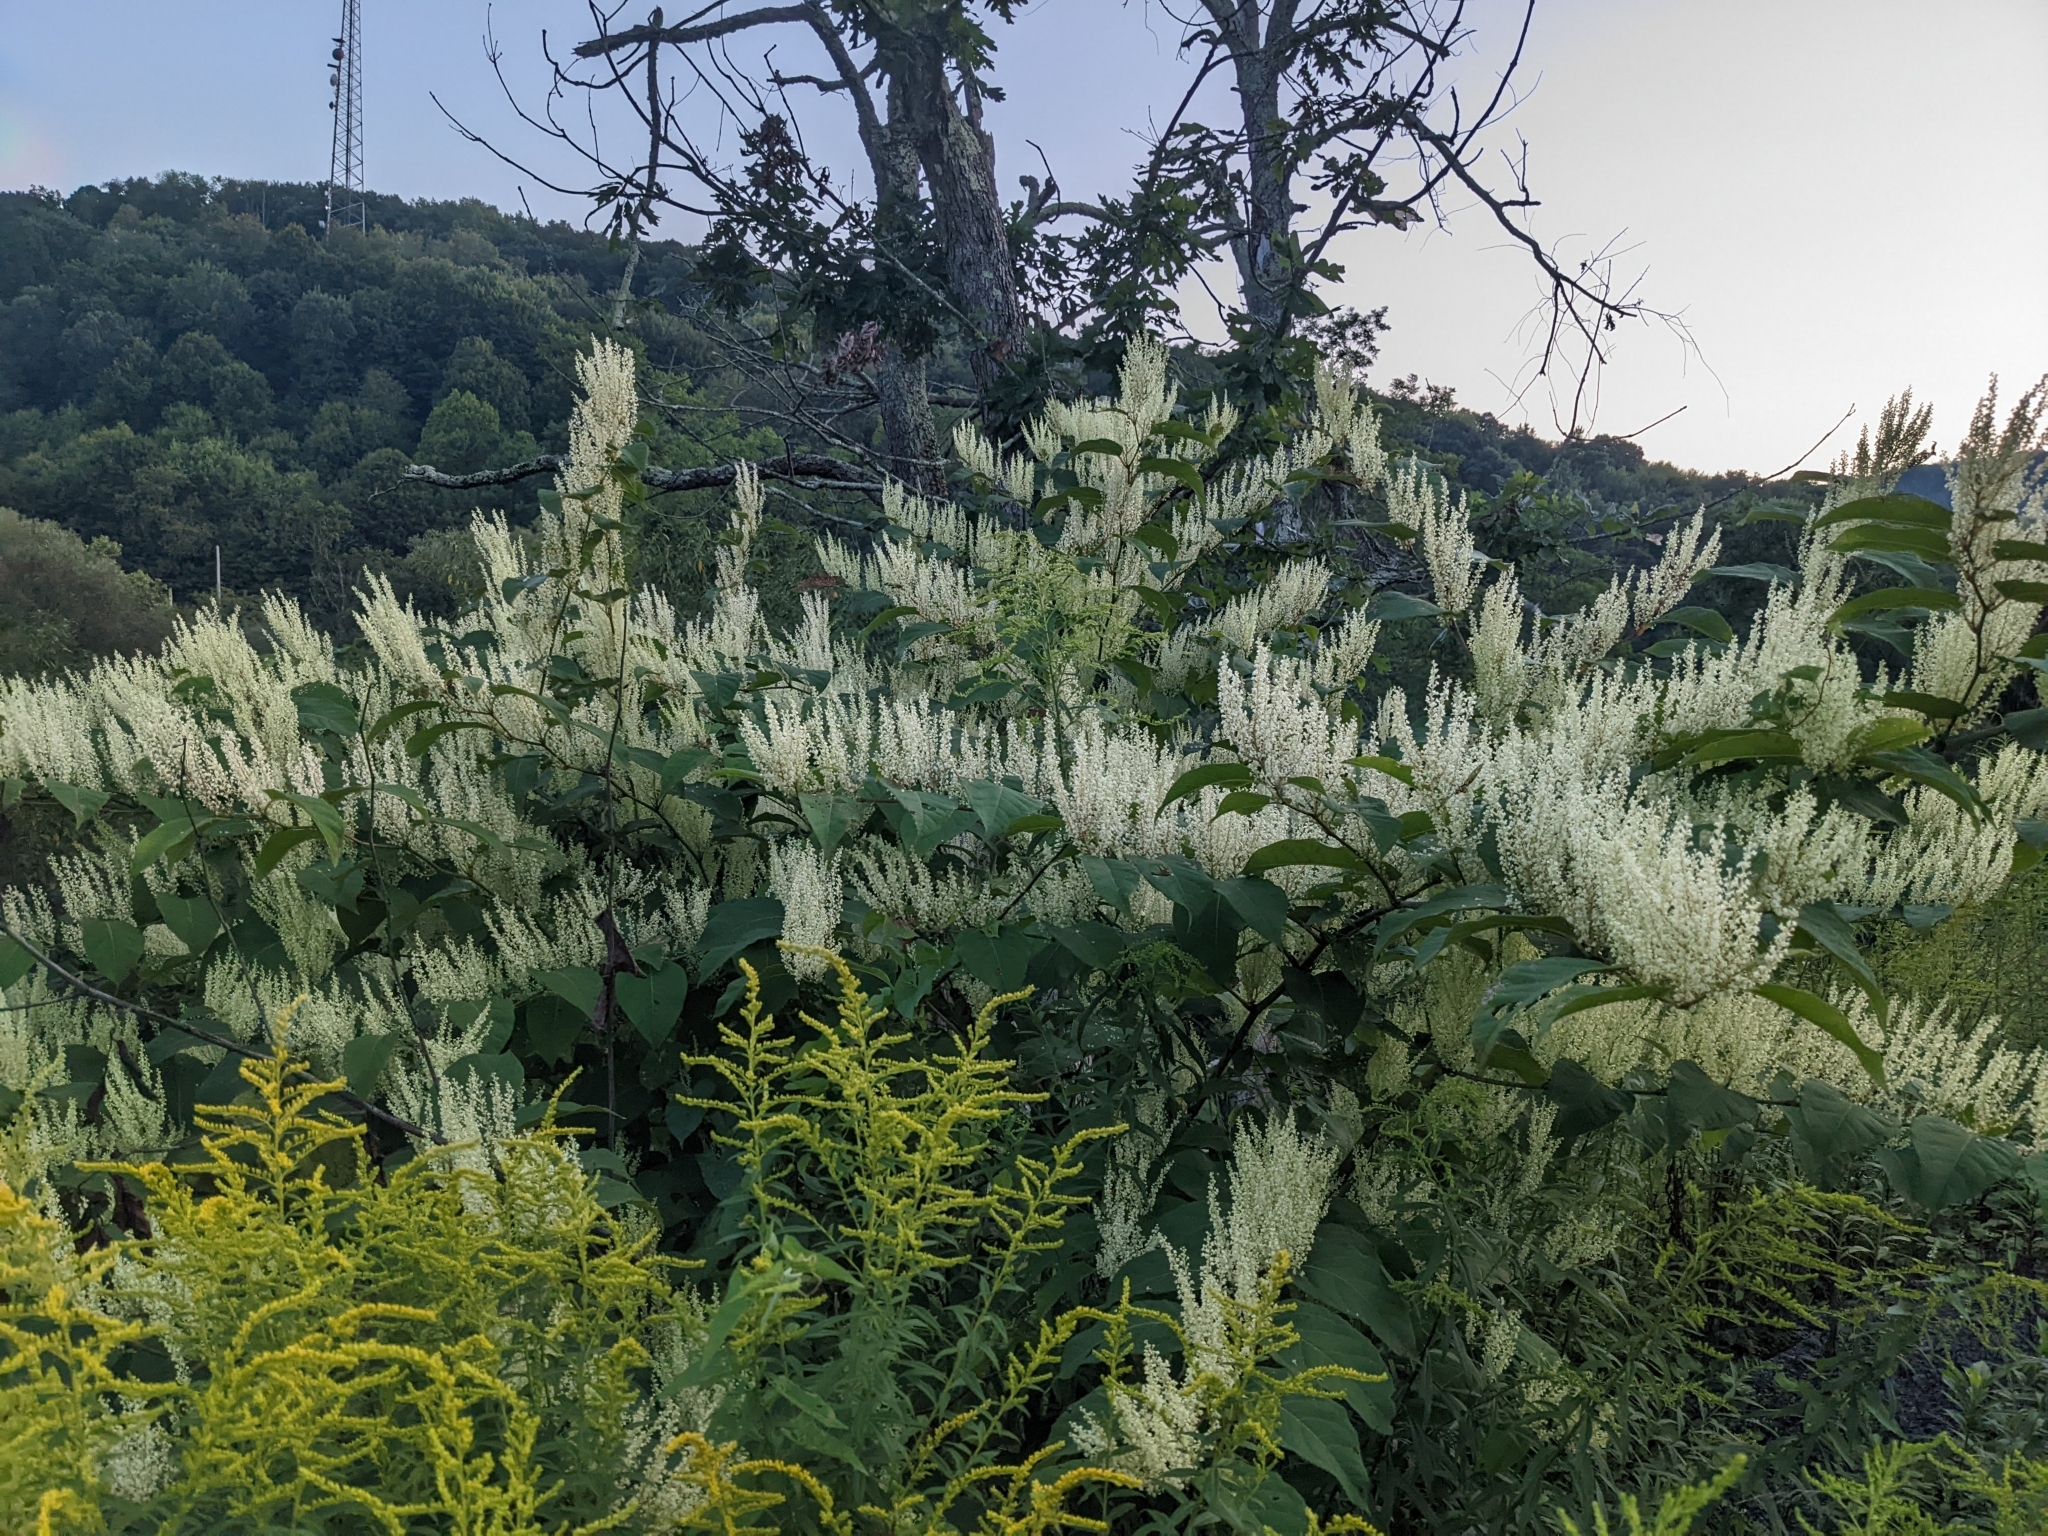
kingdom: Plantae
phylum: Tracheophyta
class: Magnoliopsida
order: Caryophyllales
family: Polygonaceae
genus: Reynoutria
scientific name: Reynoutria japonica
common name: Japanese knotweed
